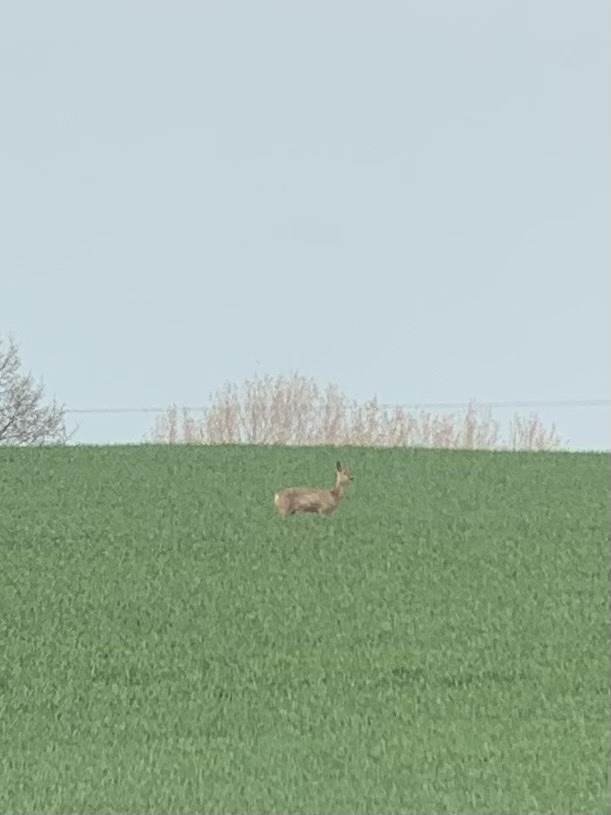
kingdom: Animalia
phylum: Chordata
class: Mammalia
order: Artiodactyla
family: Cervidae
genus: Capreolus
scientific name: Capreolus capreolus
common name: Western roe deer
